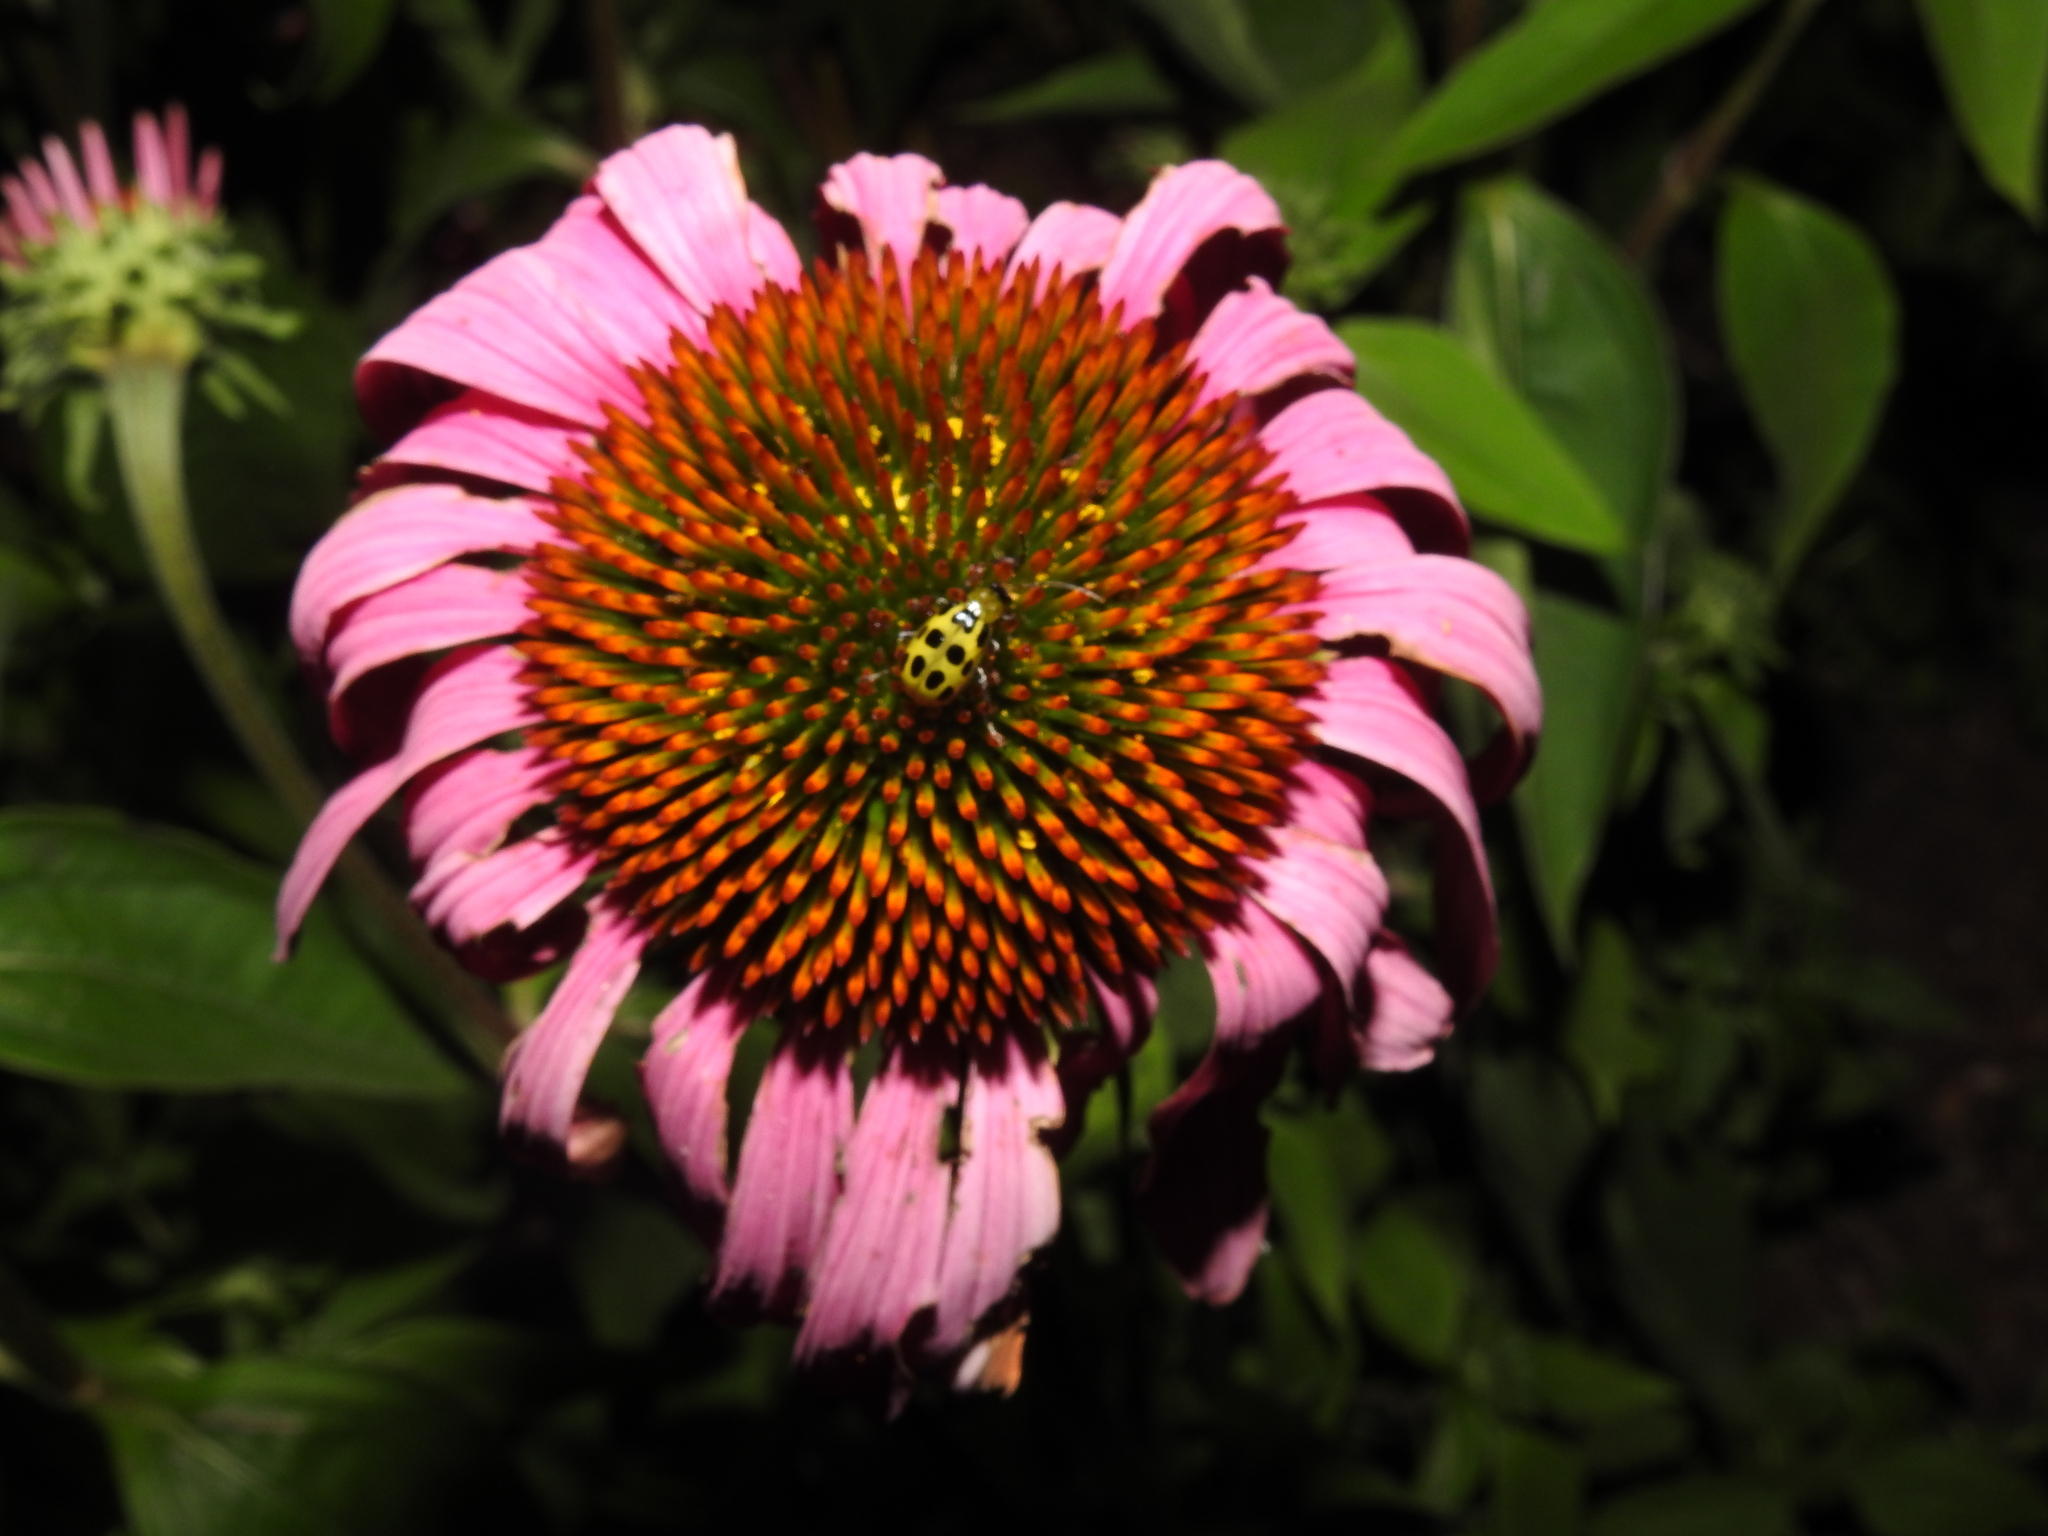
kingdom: Animalia
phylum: Arthropoda
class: Insecta
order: Coleoptera
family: Chrysomelidae
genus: Diabrotica
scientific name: Diabrotica undecimpunctata
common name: Spotted cucumber beetle
